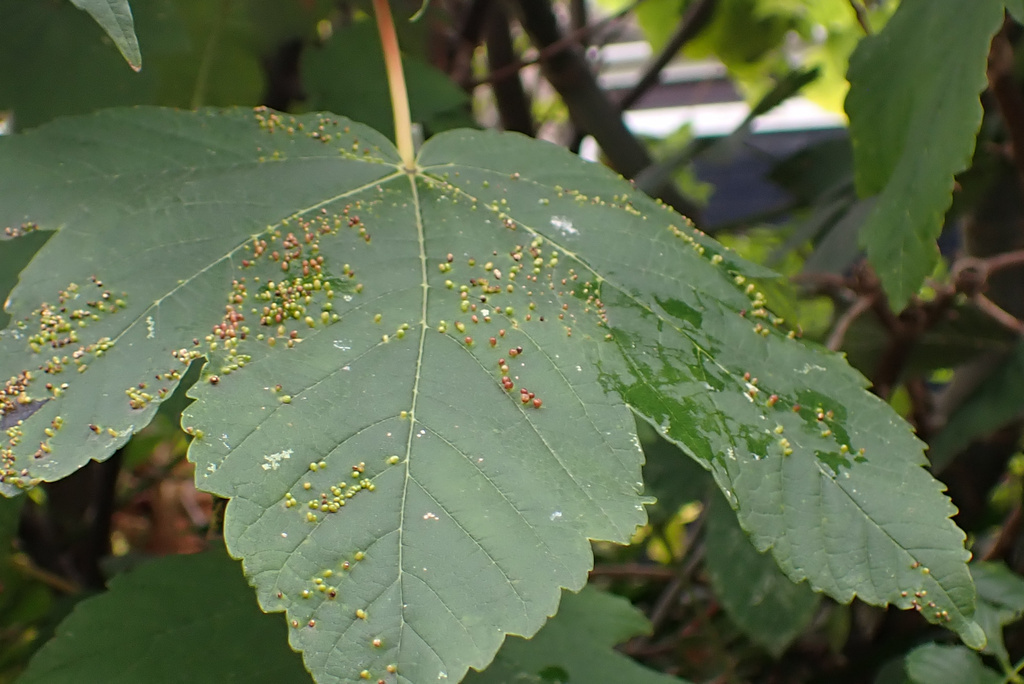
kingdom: Animalia
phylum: Arthropoda
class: Arachnida
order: Trombidiformes
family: Eriophyidae
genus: Aceria
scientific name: Aceria cephaloneus
